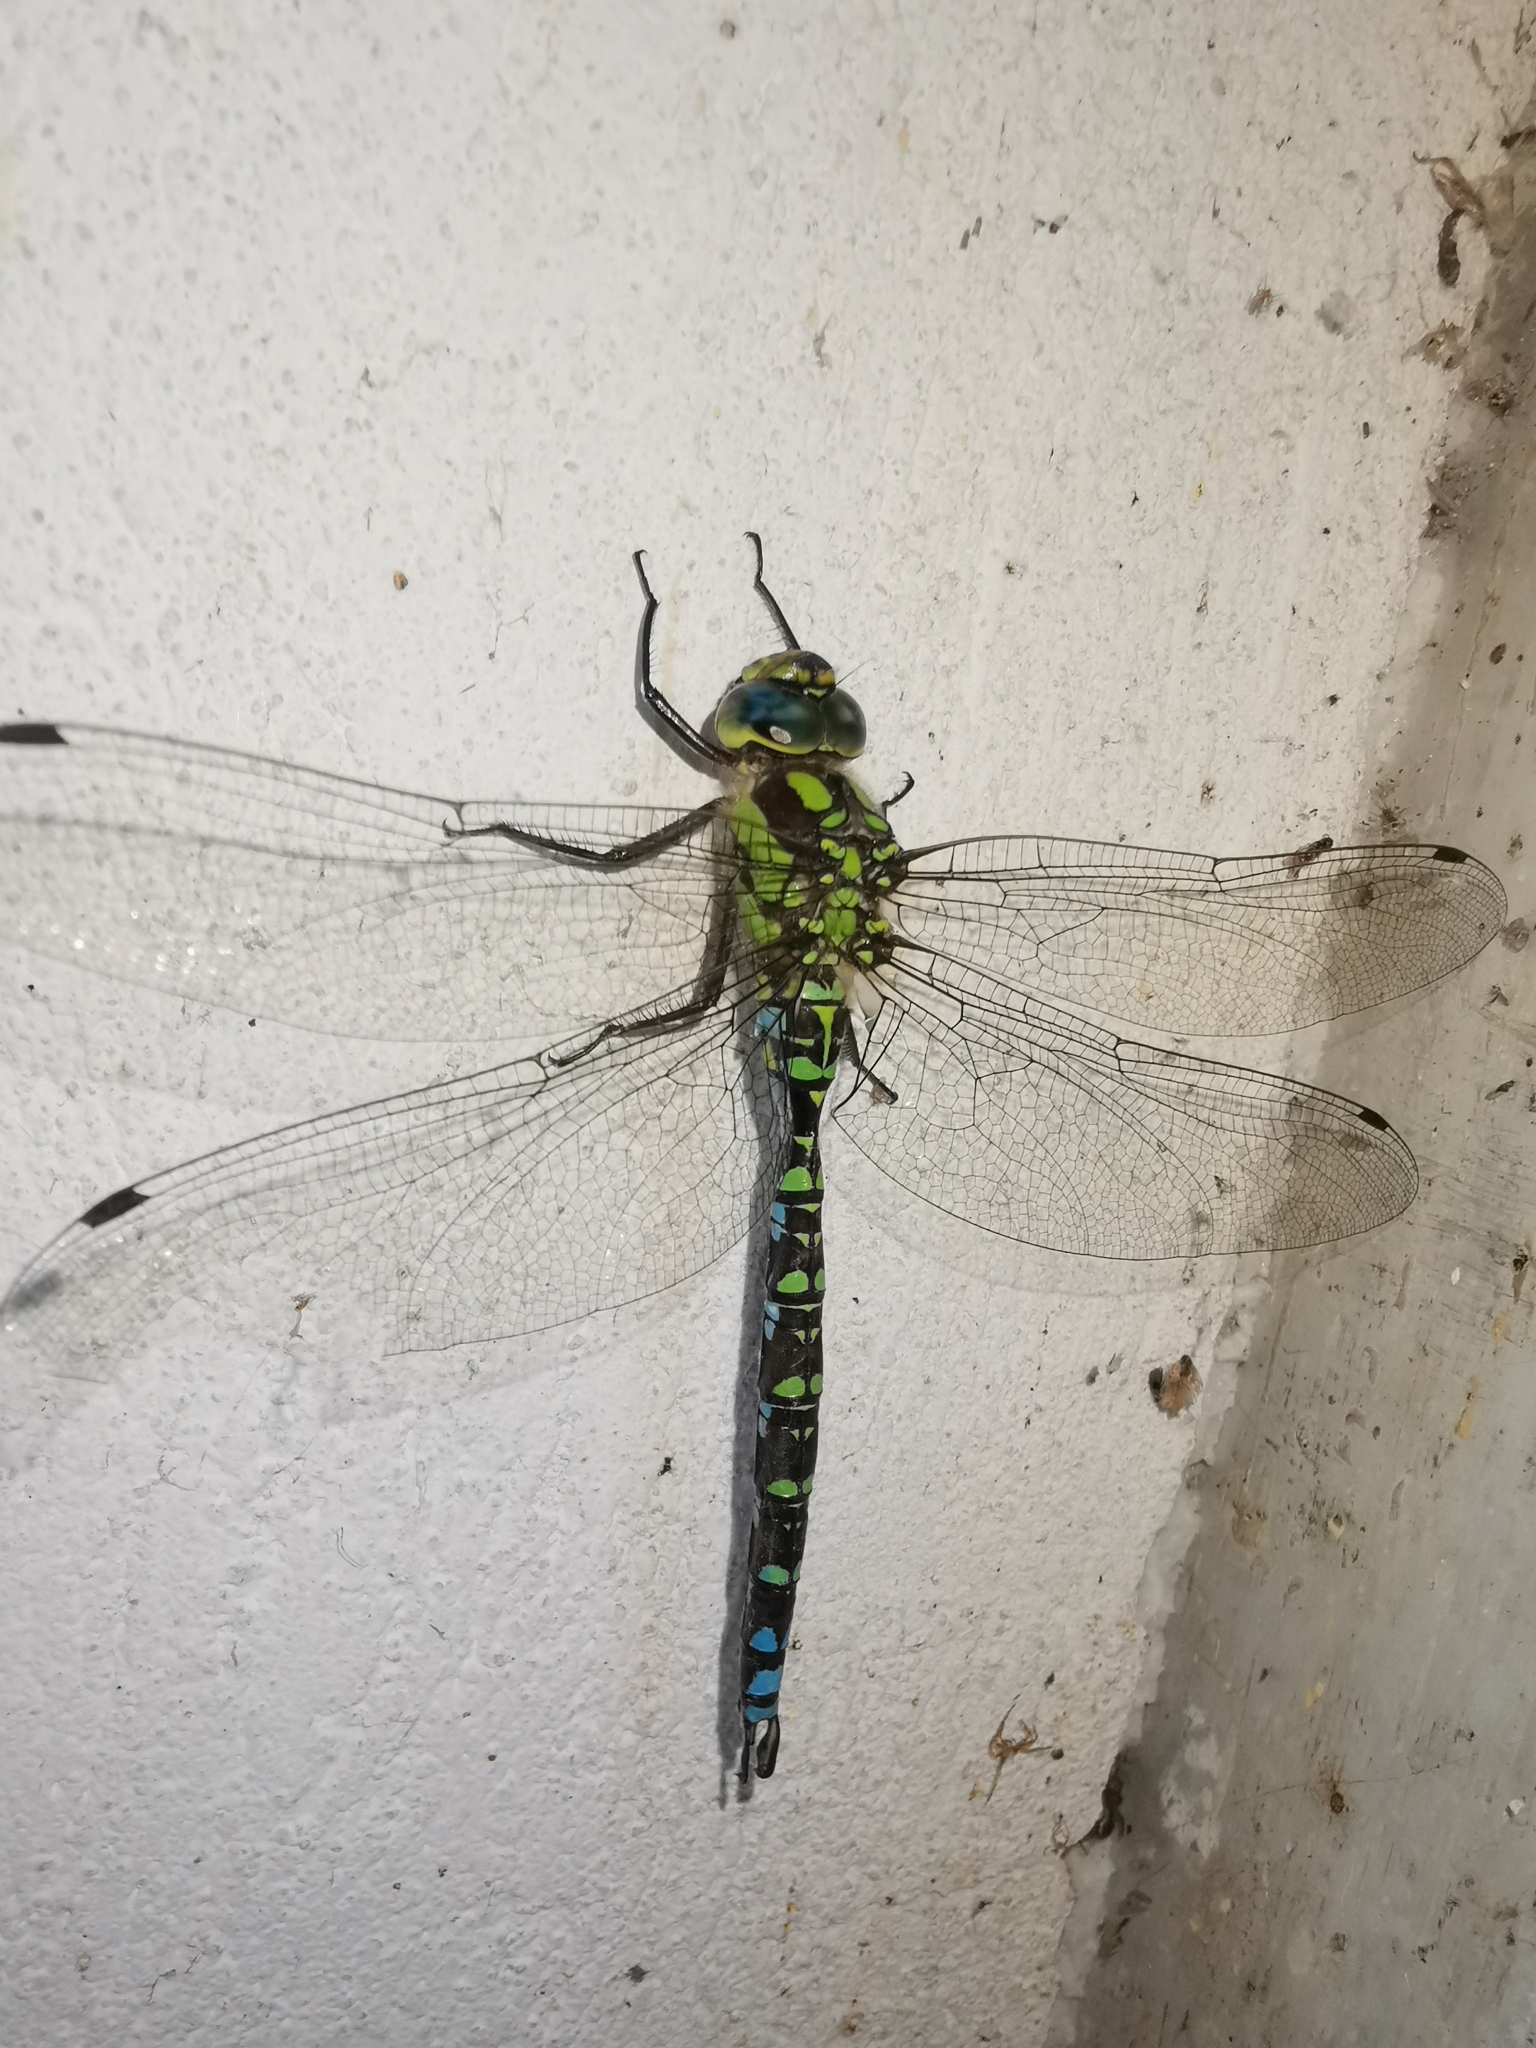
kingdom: Animalia
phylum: Arthropoda
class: Insecta
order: Odonata
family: Aeshnidae
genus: Aeshna
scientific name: Aeshna cyanea
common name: Southern hawker
